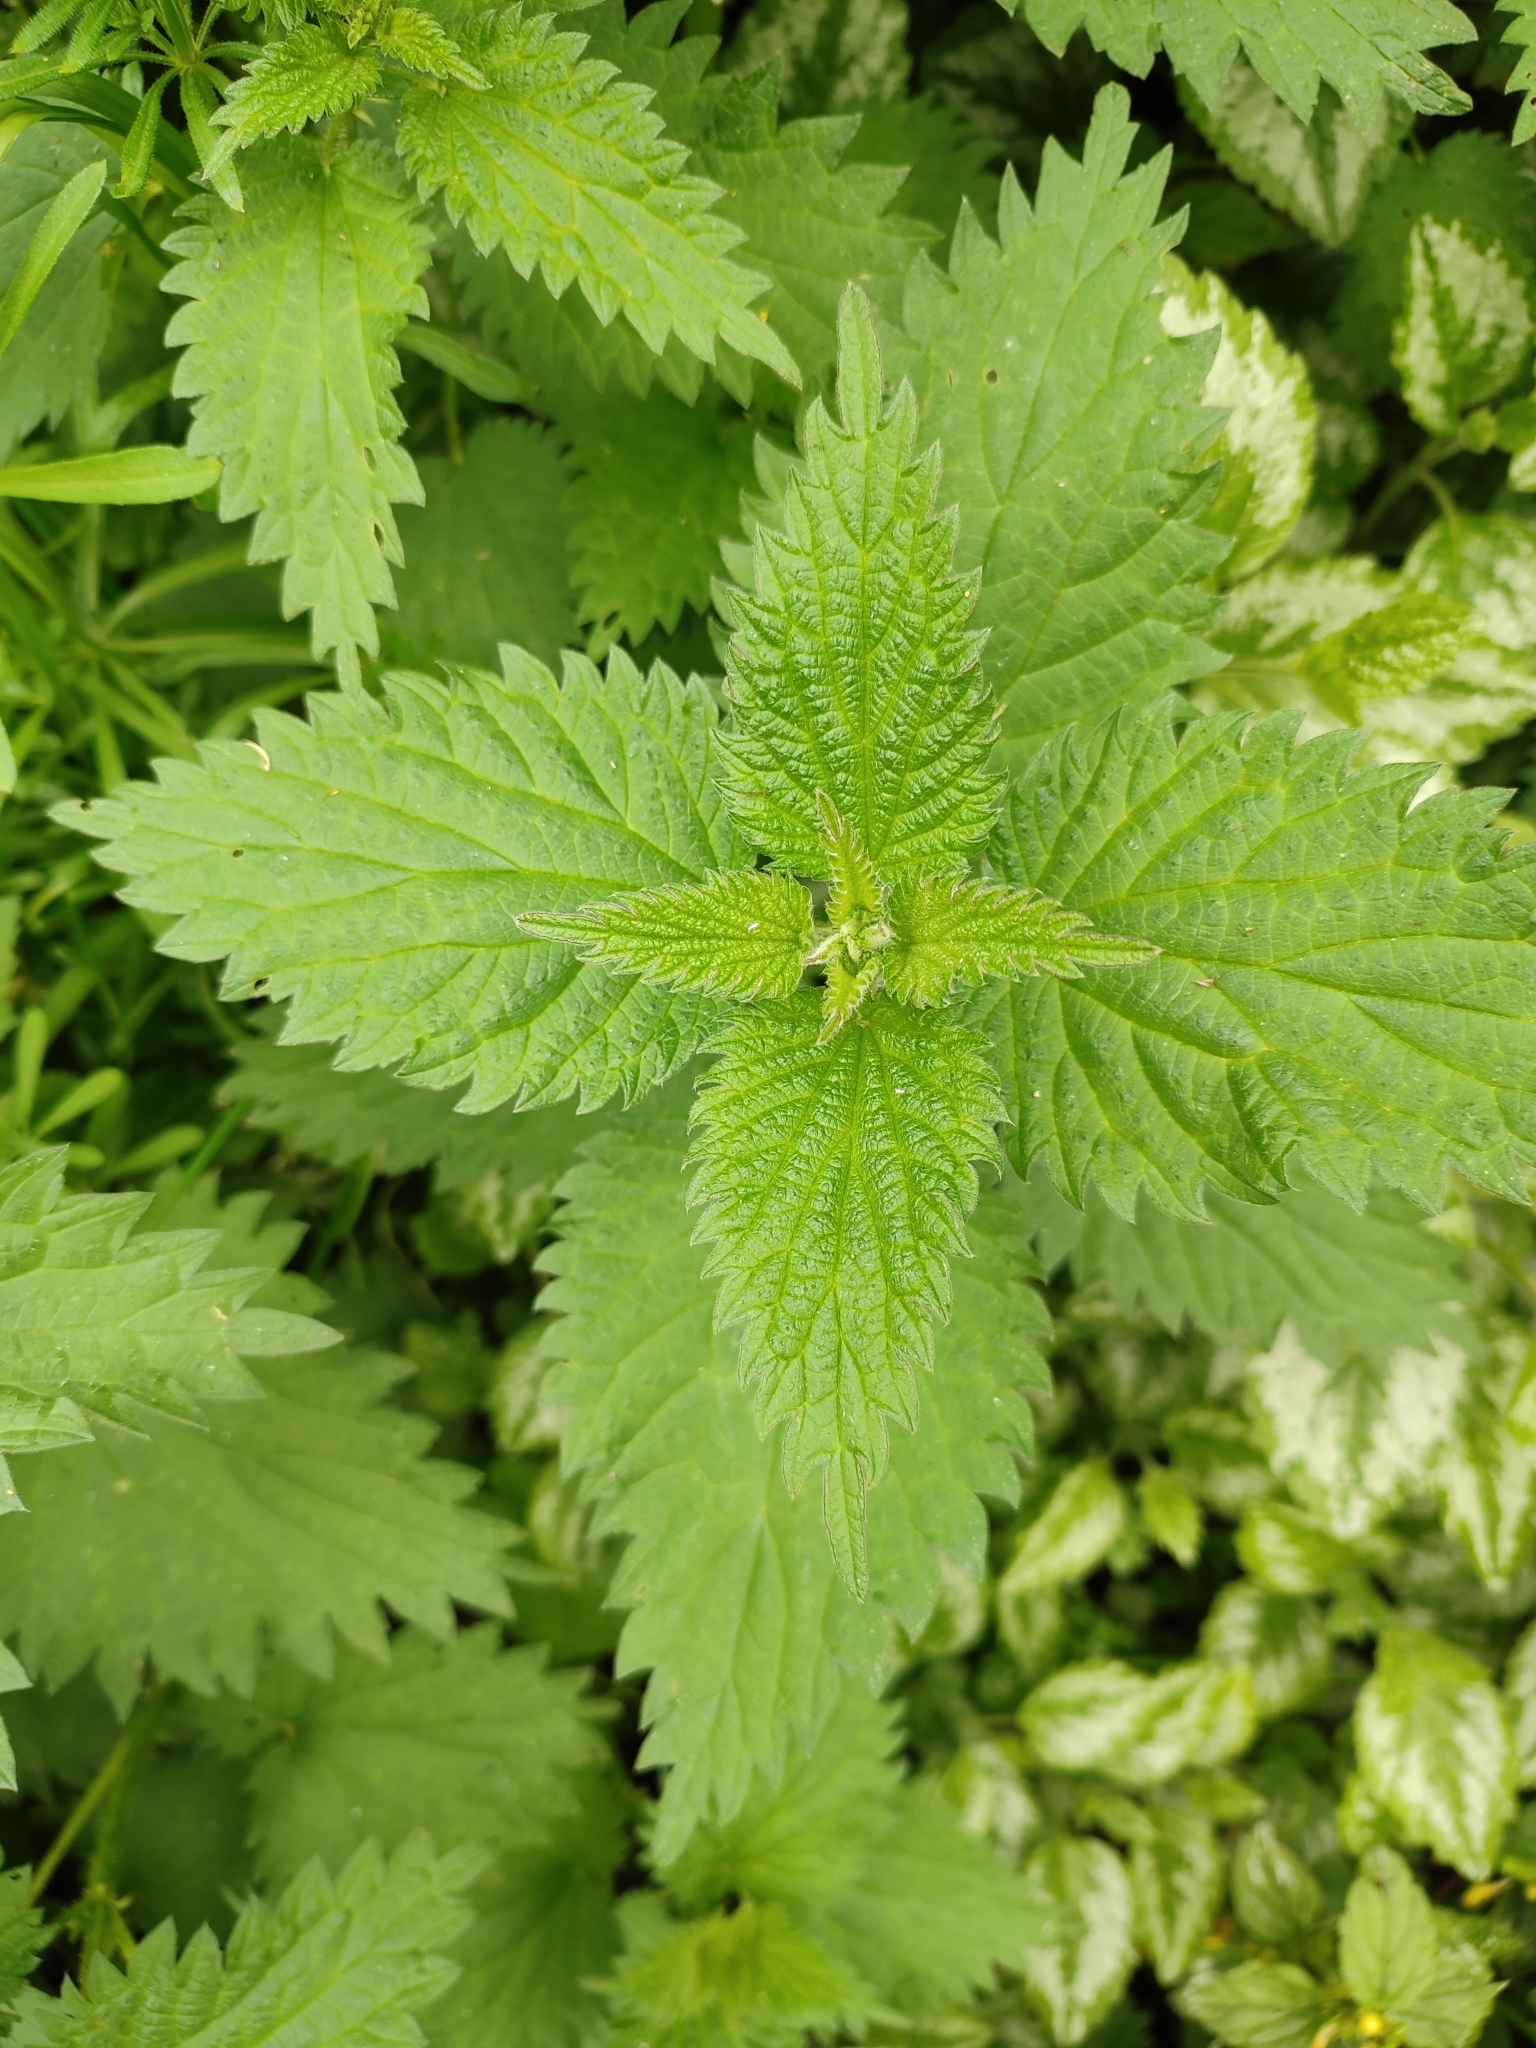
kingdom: Plantae
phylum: Tracheophyta
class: Magnoliopsida
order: Rosales
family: Urticaceae
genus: Urtica
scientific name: Urtica dioica
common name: Common nettle
